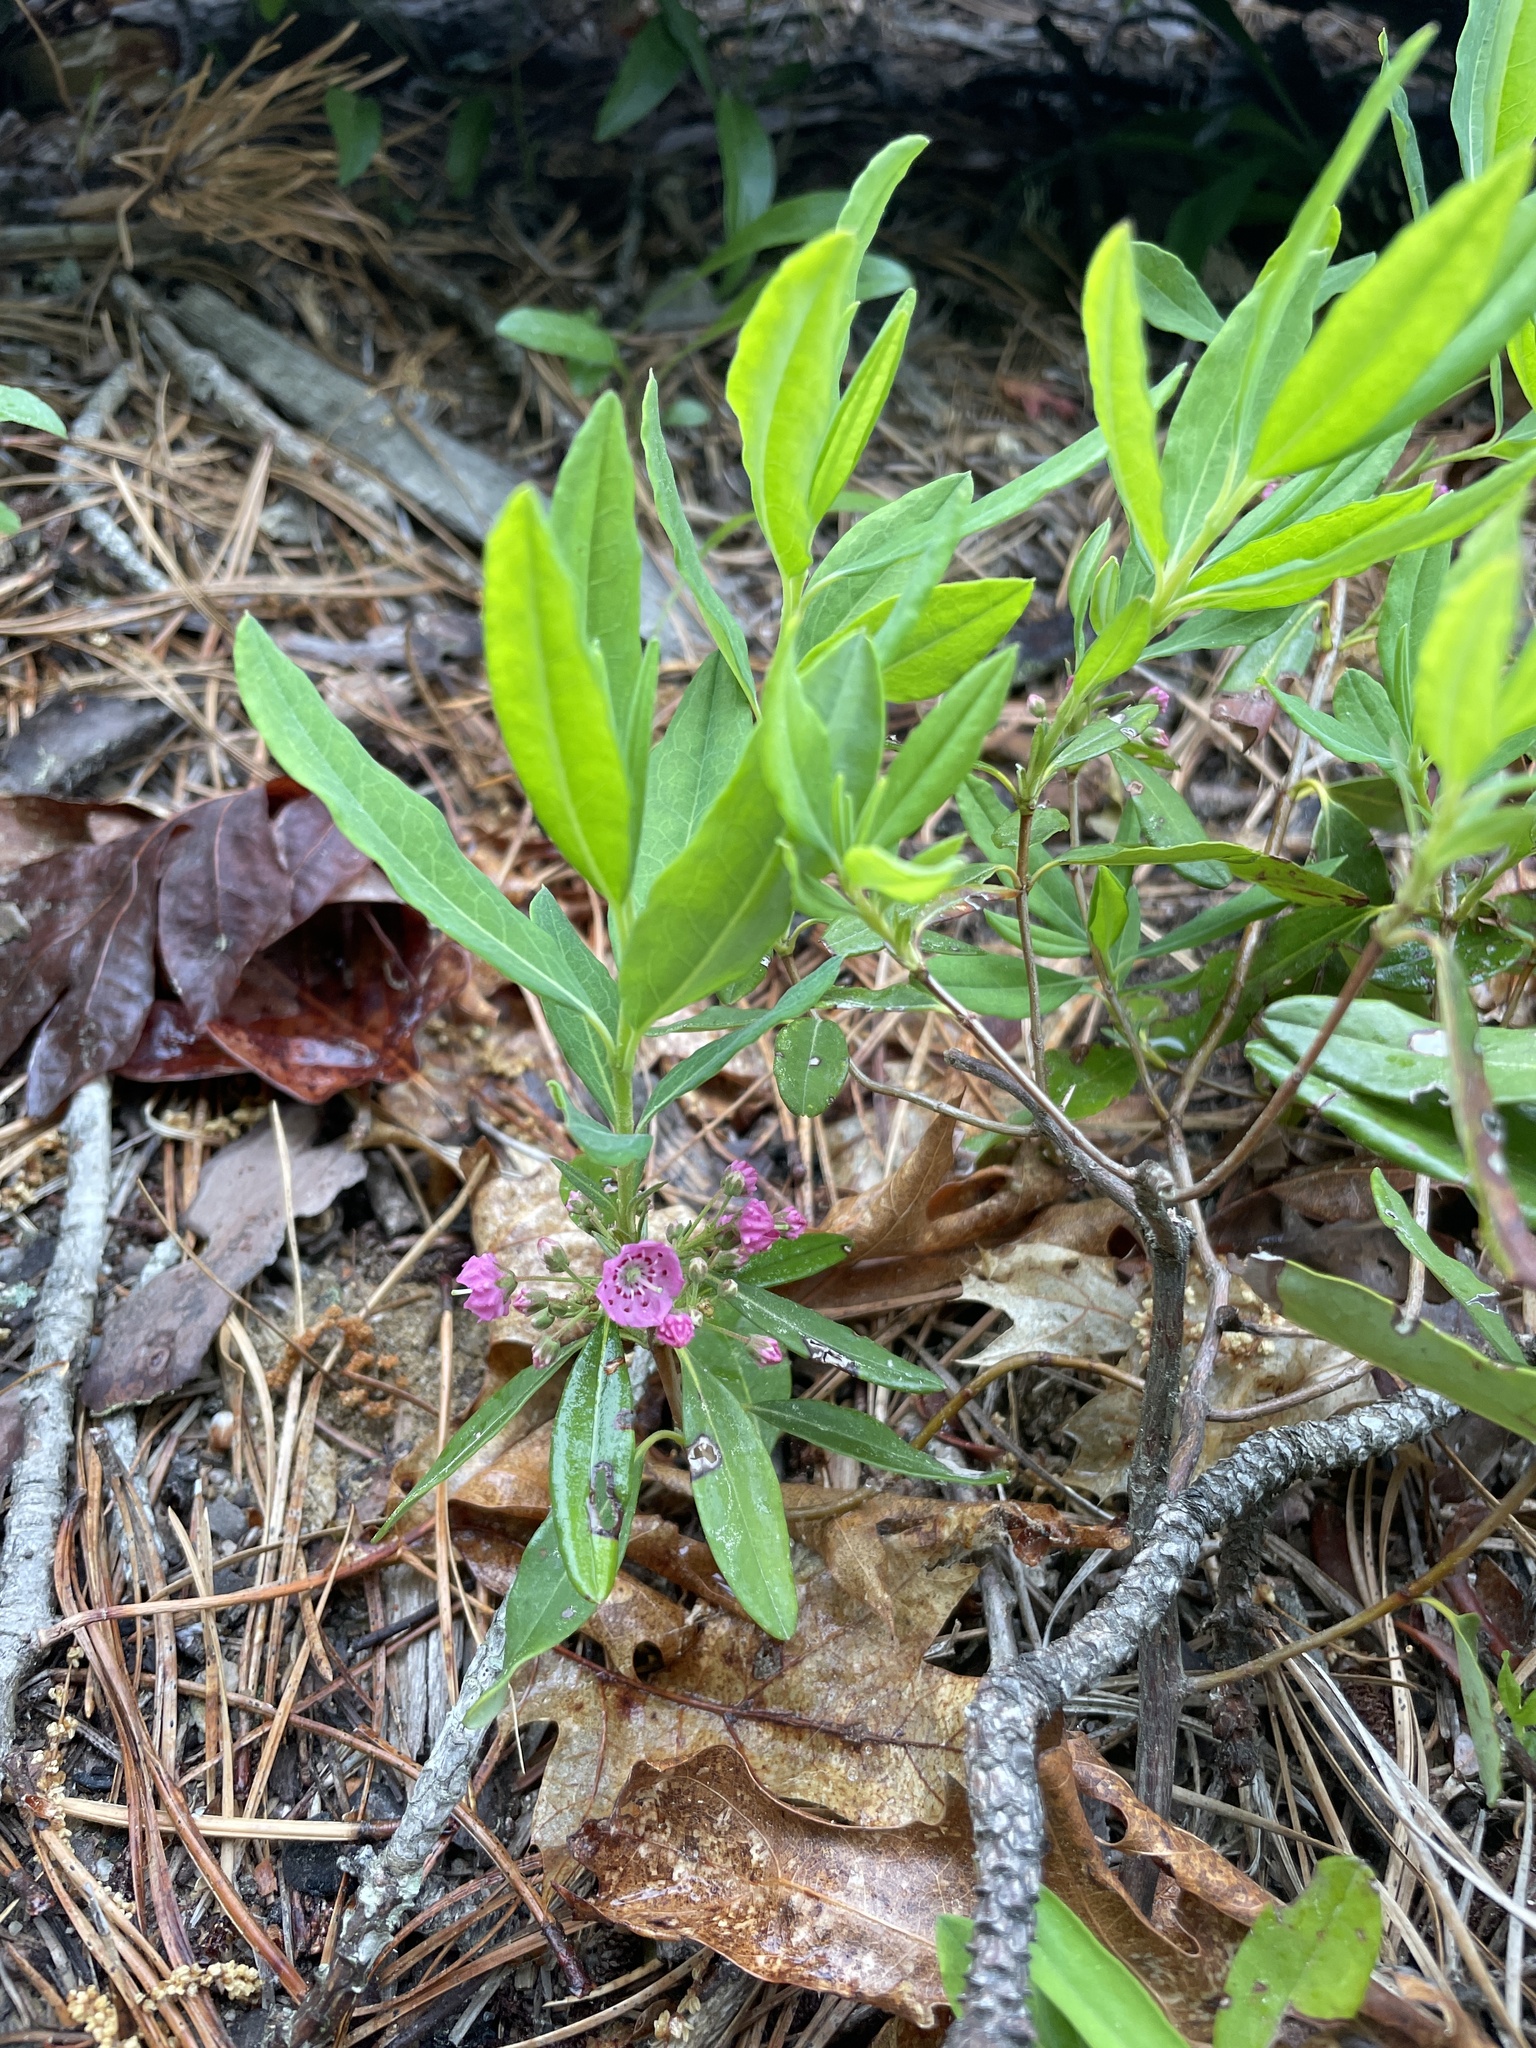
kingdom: Plantae
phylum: Tracheophyta
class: Magnoliopsida
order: Ericales
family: Ericaceae
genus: Kalmia
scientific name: Kalmia angustifolia
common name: Sheep-laurel
